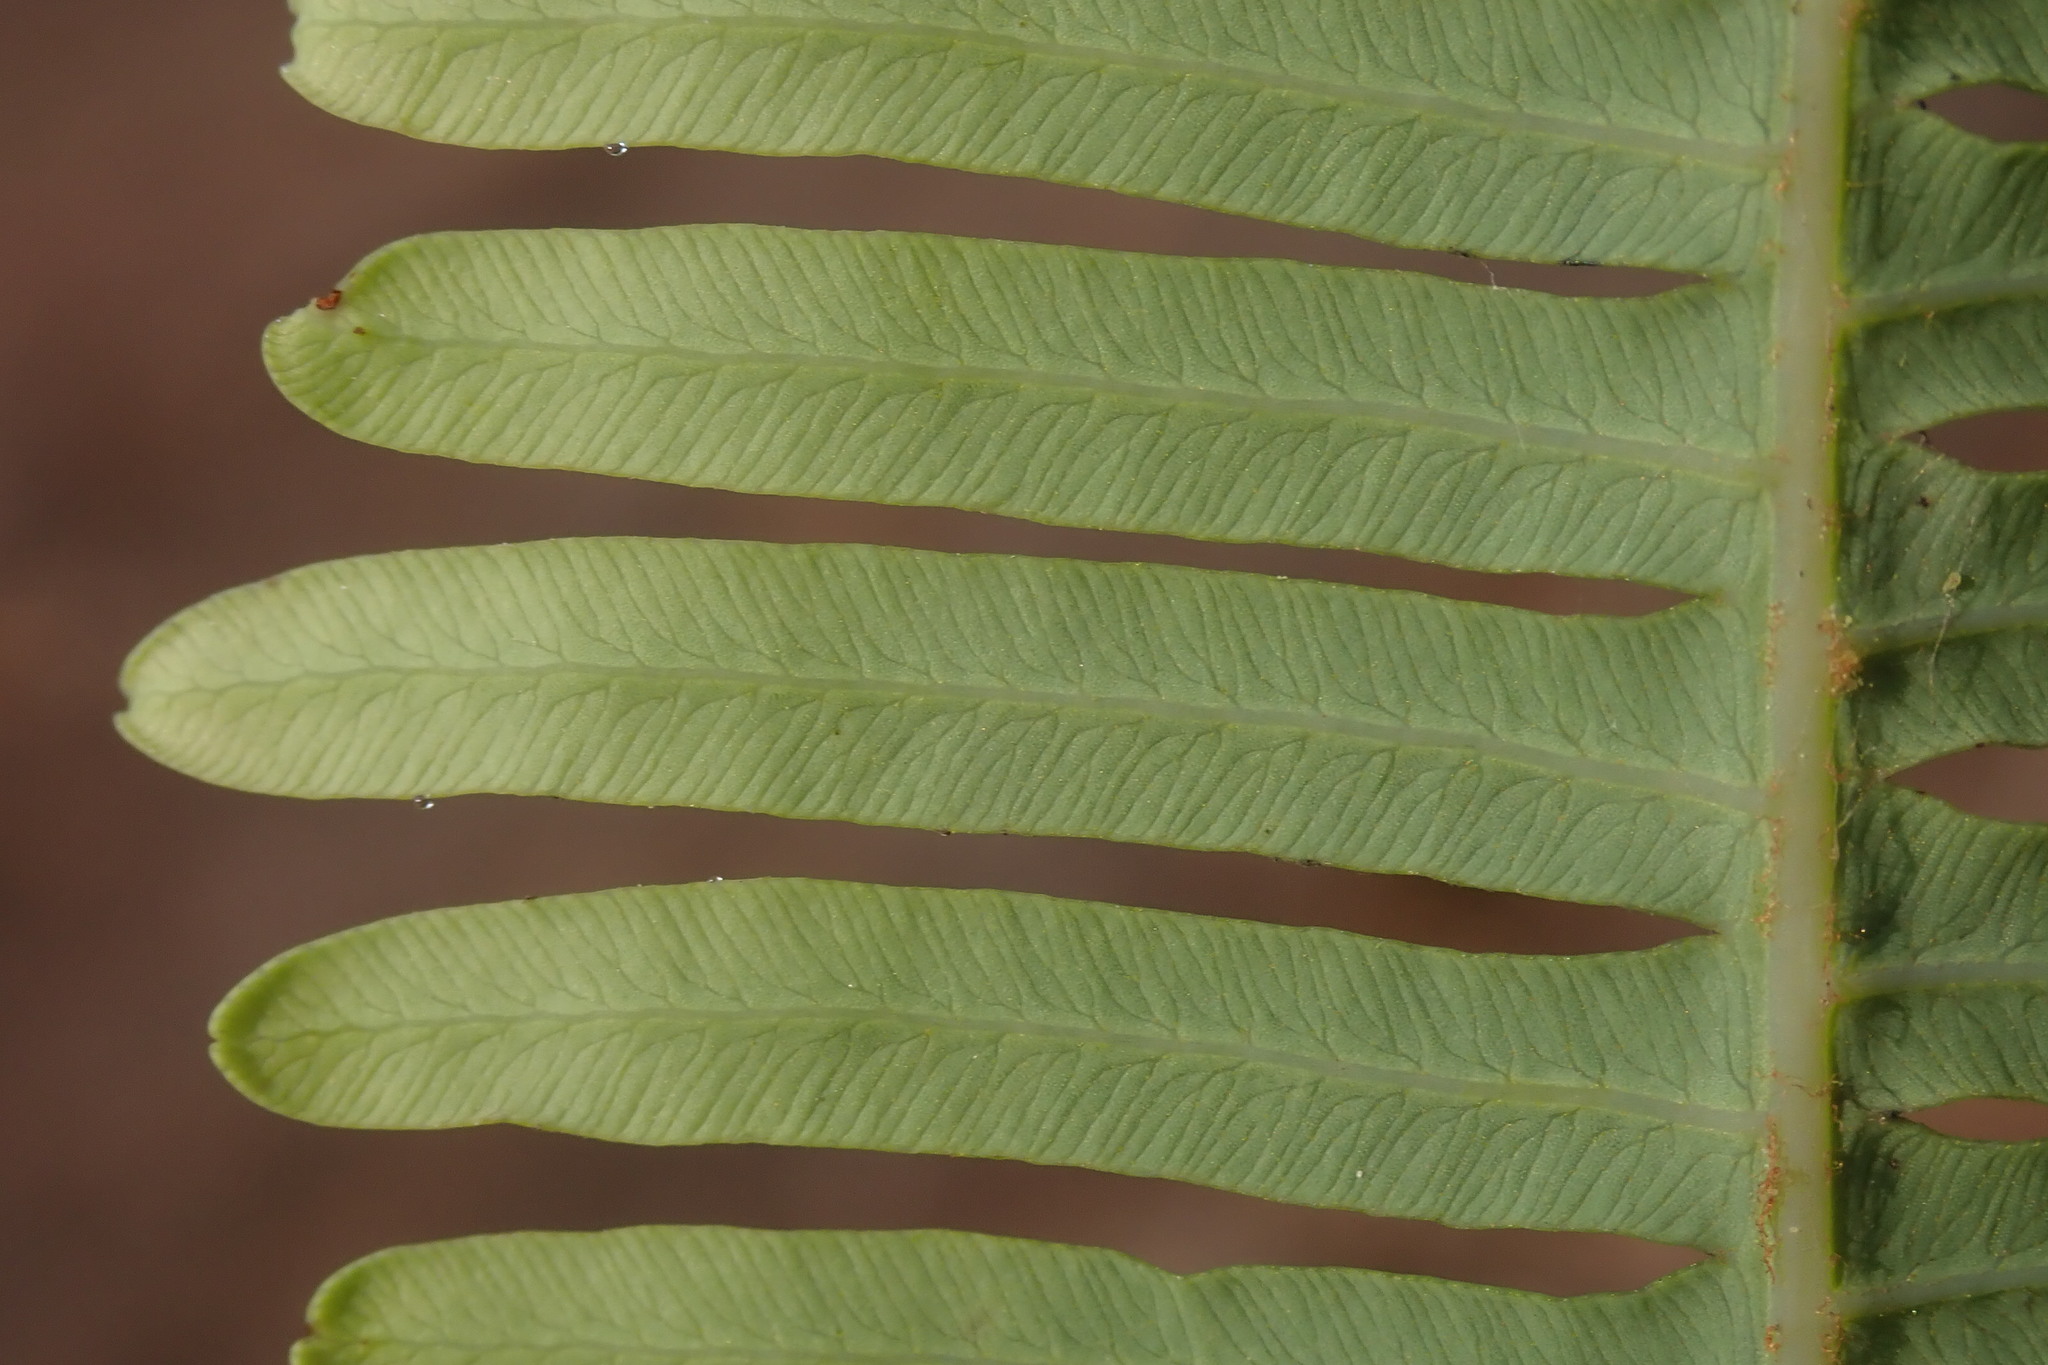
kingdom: Plantae
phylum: Tracheophyta
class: Polypodiopsida
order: Gleicheniales
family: Gleicheniaceae
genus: Dicranopteris
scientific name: Dicranopteris linearis
